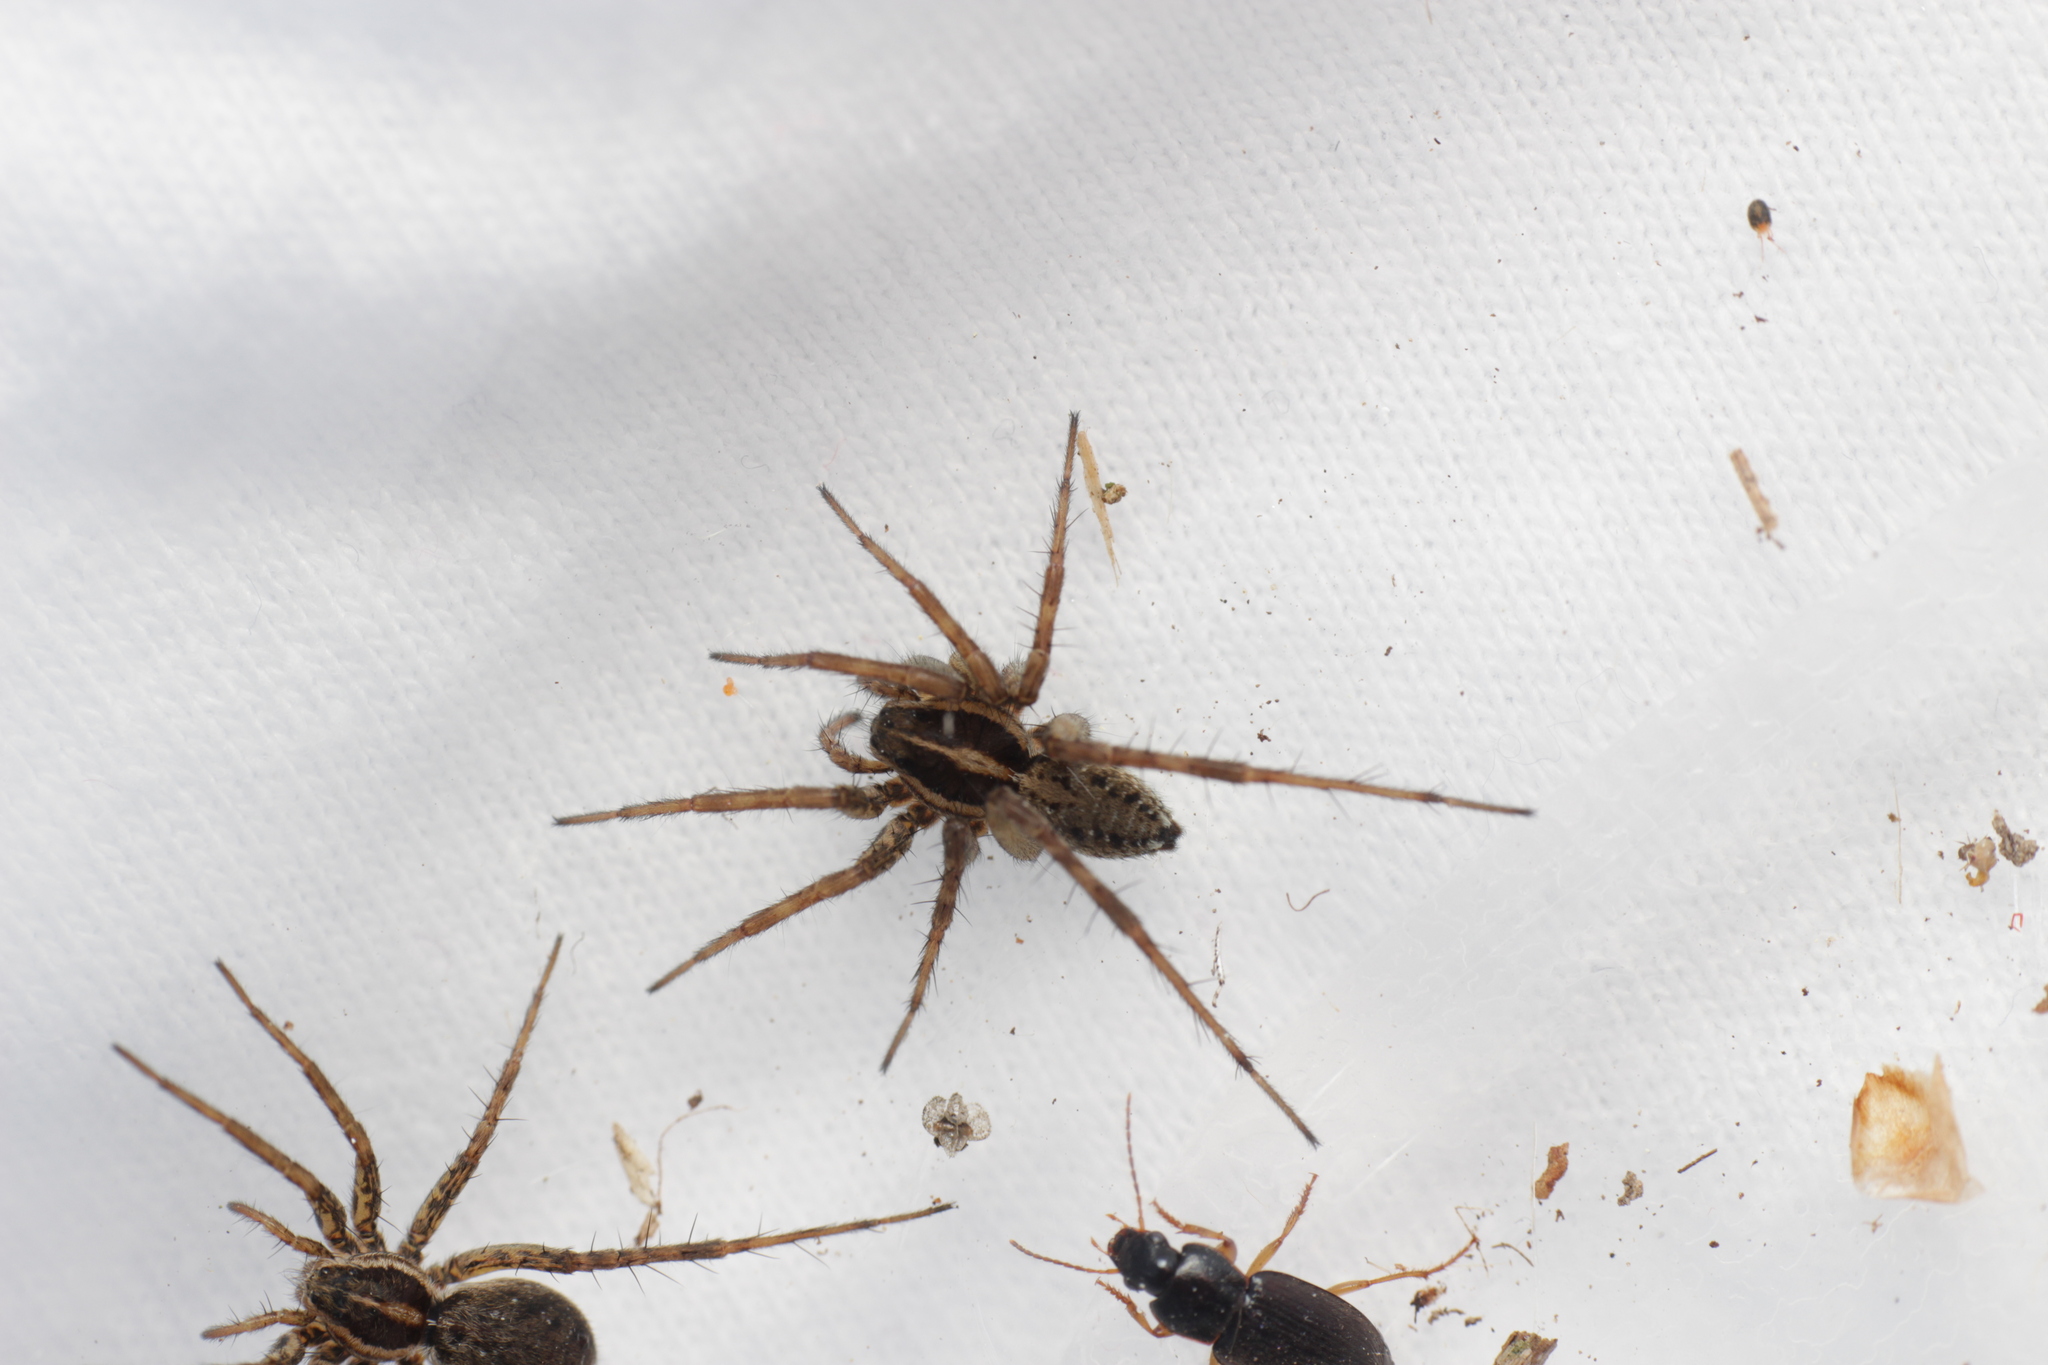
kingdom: Animalia
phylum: Arthropoda
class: Arachnida
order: Araneae
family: Lycosidae
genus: Pardosa
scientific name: Pardosa
